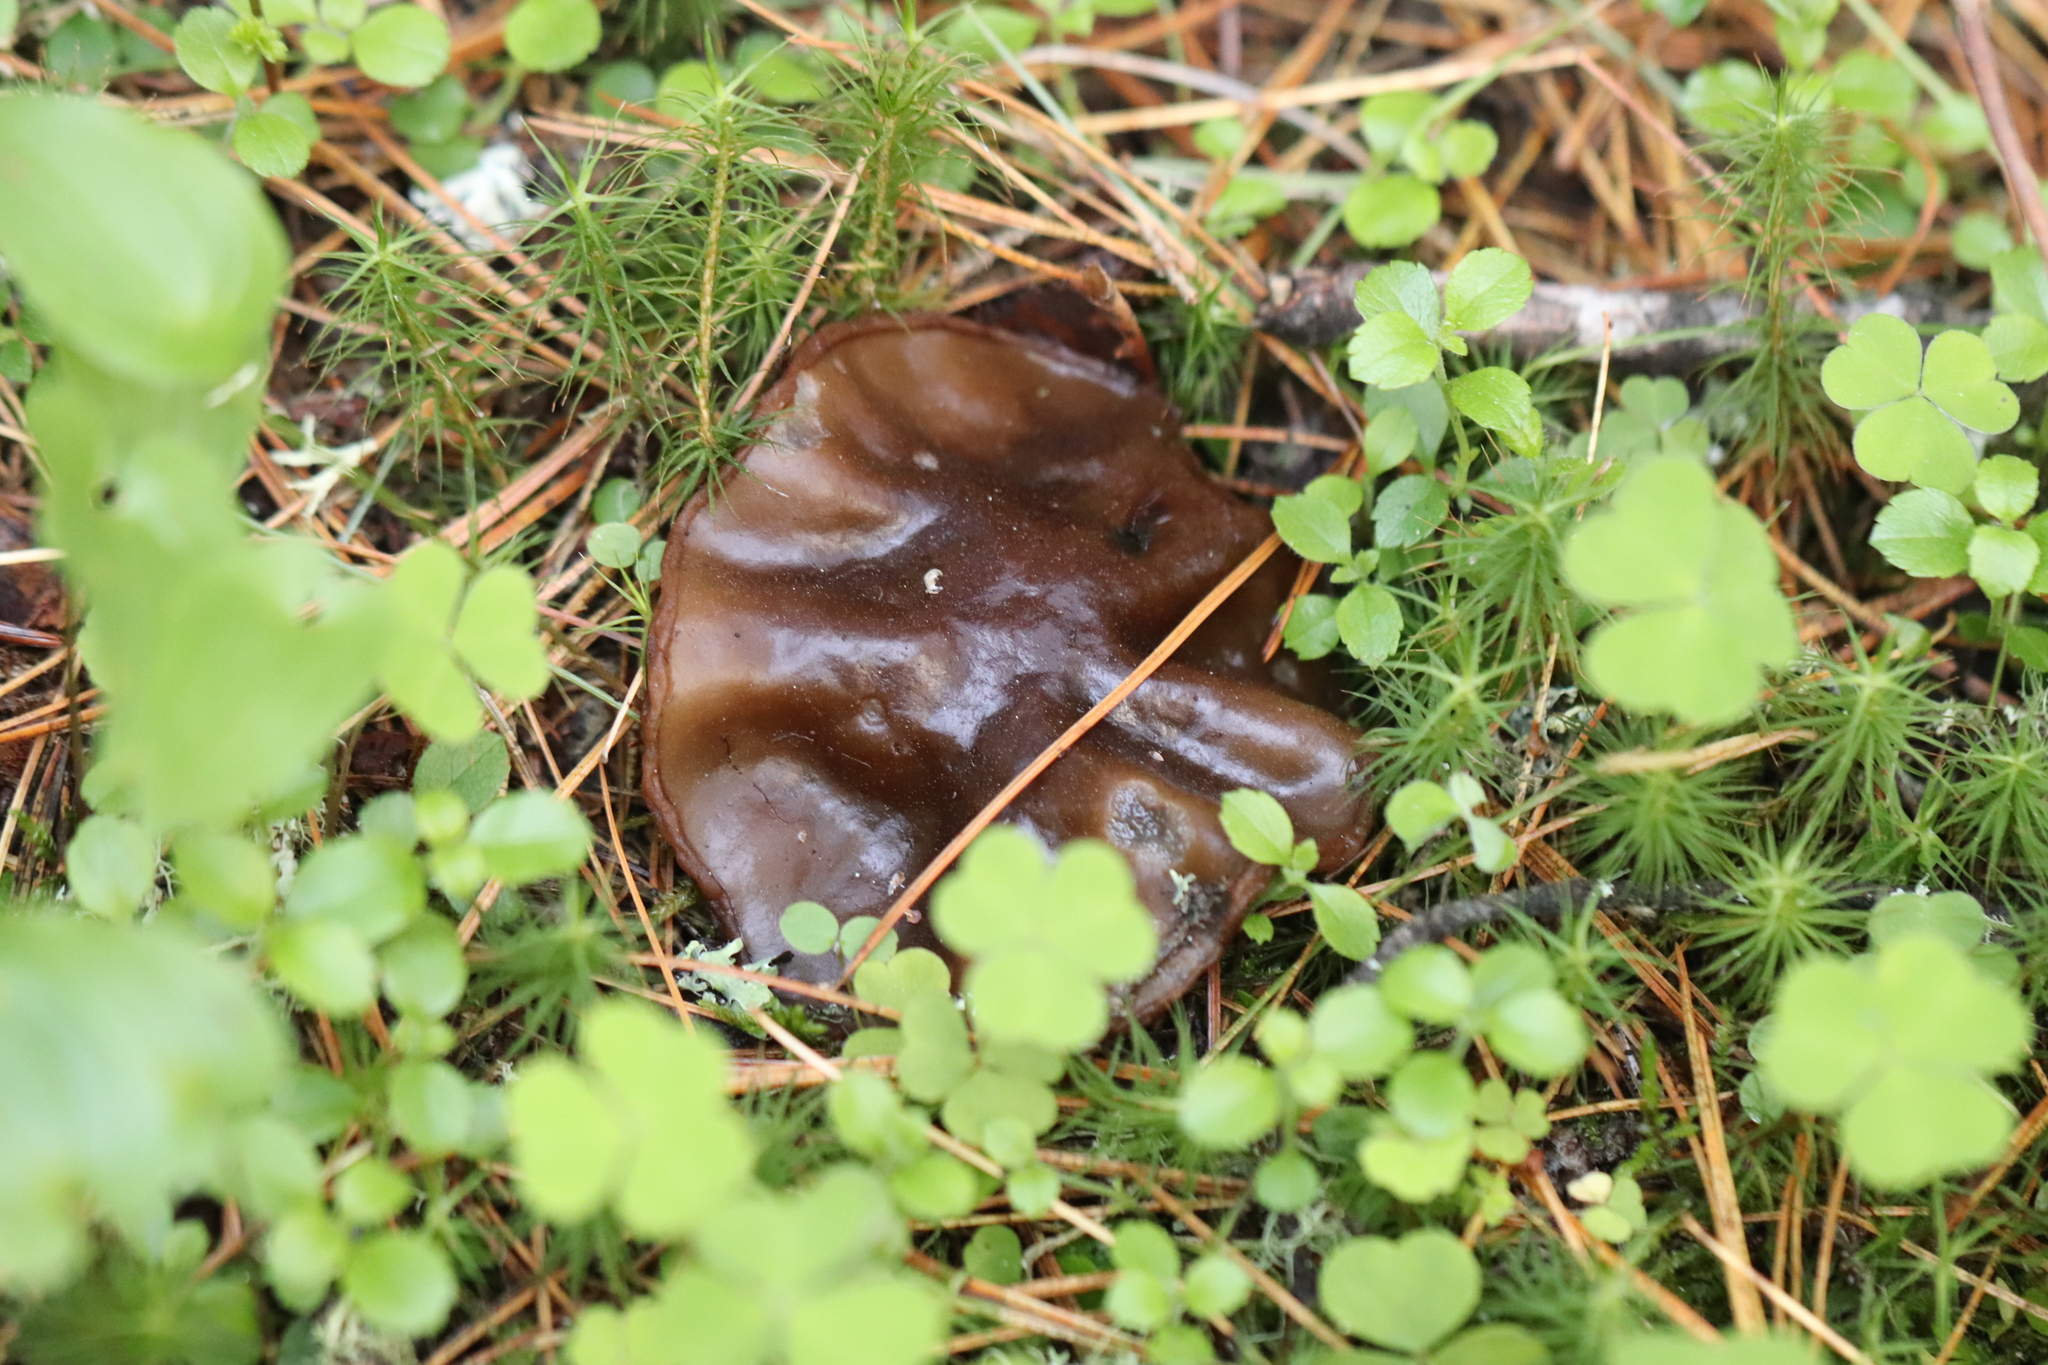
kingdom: Fungi
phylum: Ascomycota
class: Pezizomycetes
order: Pezizales
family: Sarcosomataceae
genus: Sarcosoma
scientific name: Sarcosoma globosum
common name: Charred-pancake cup
